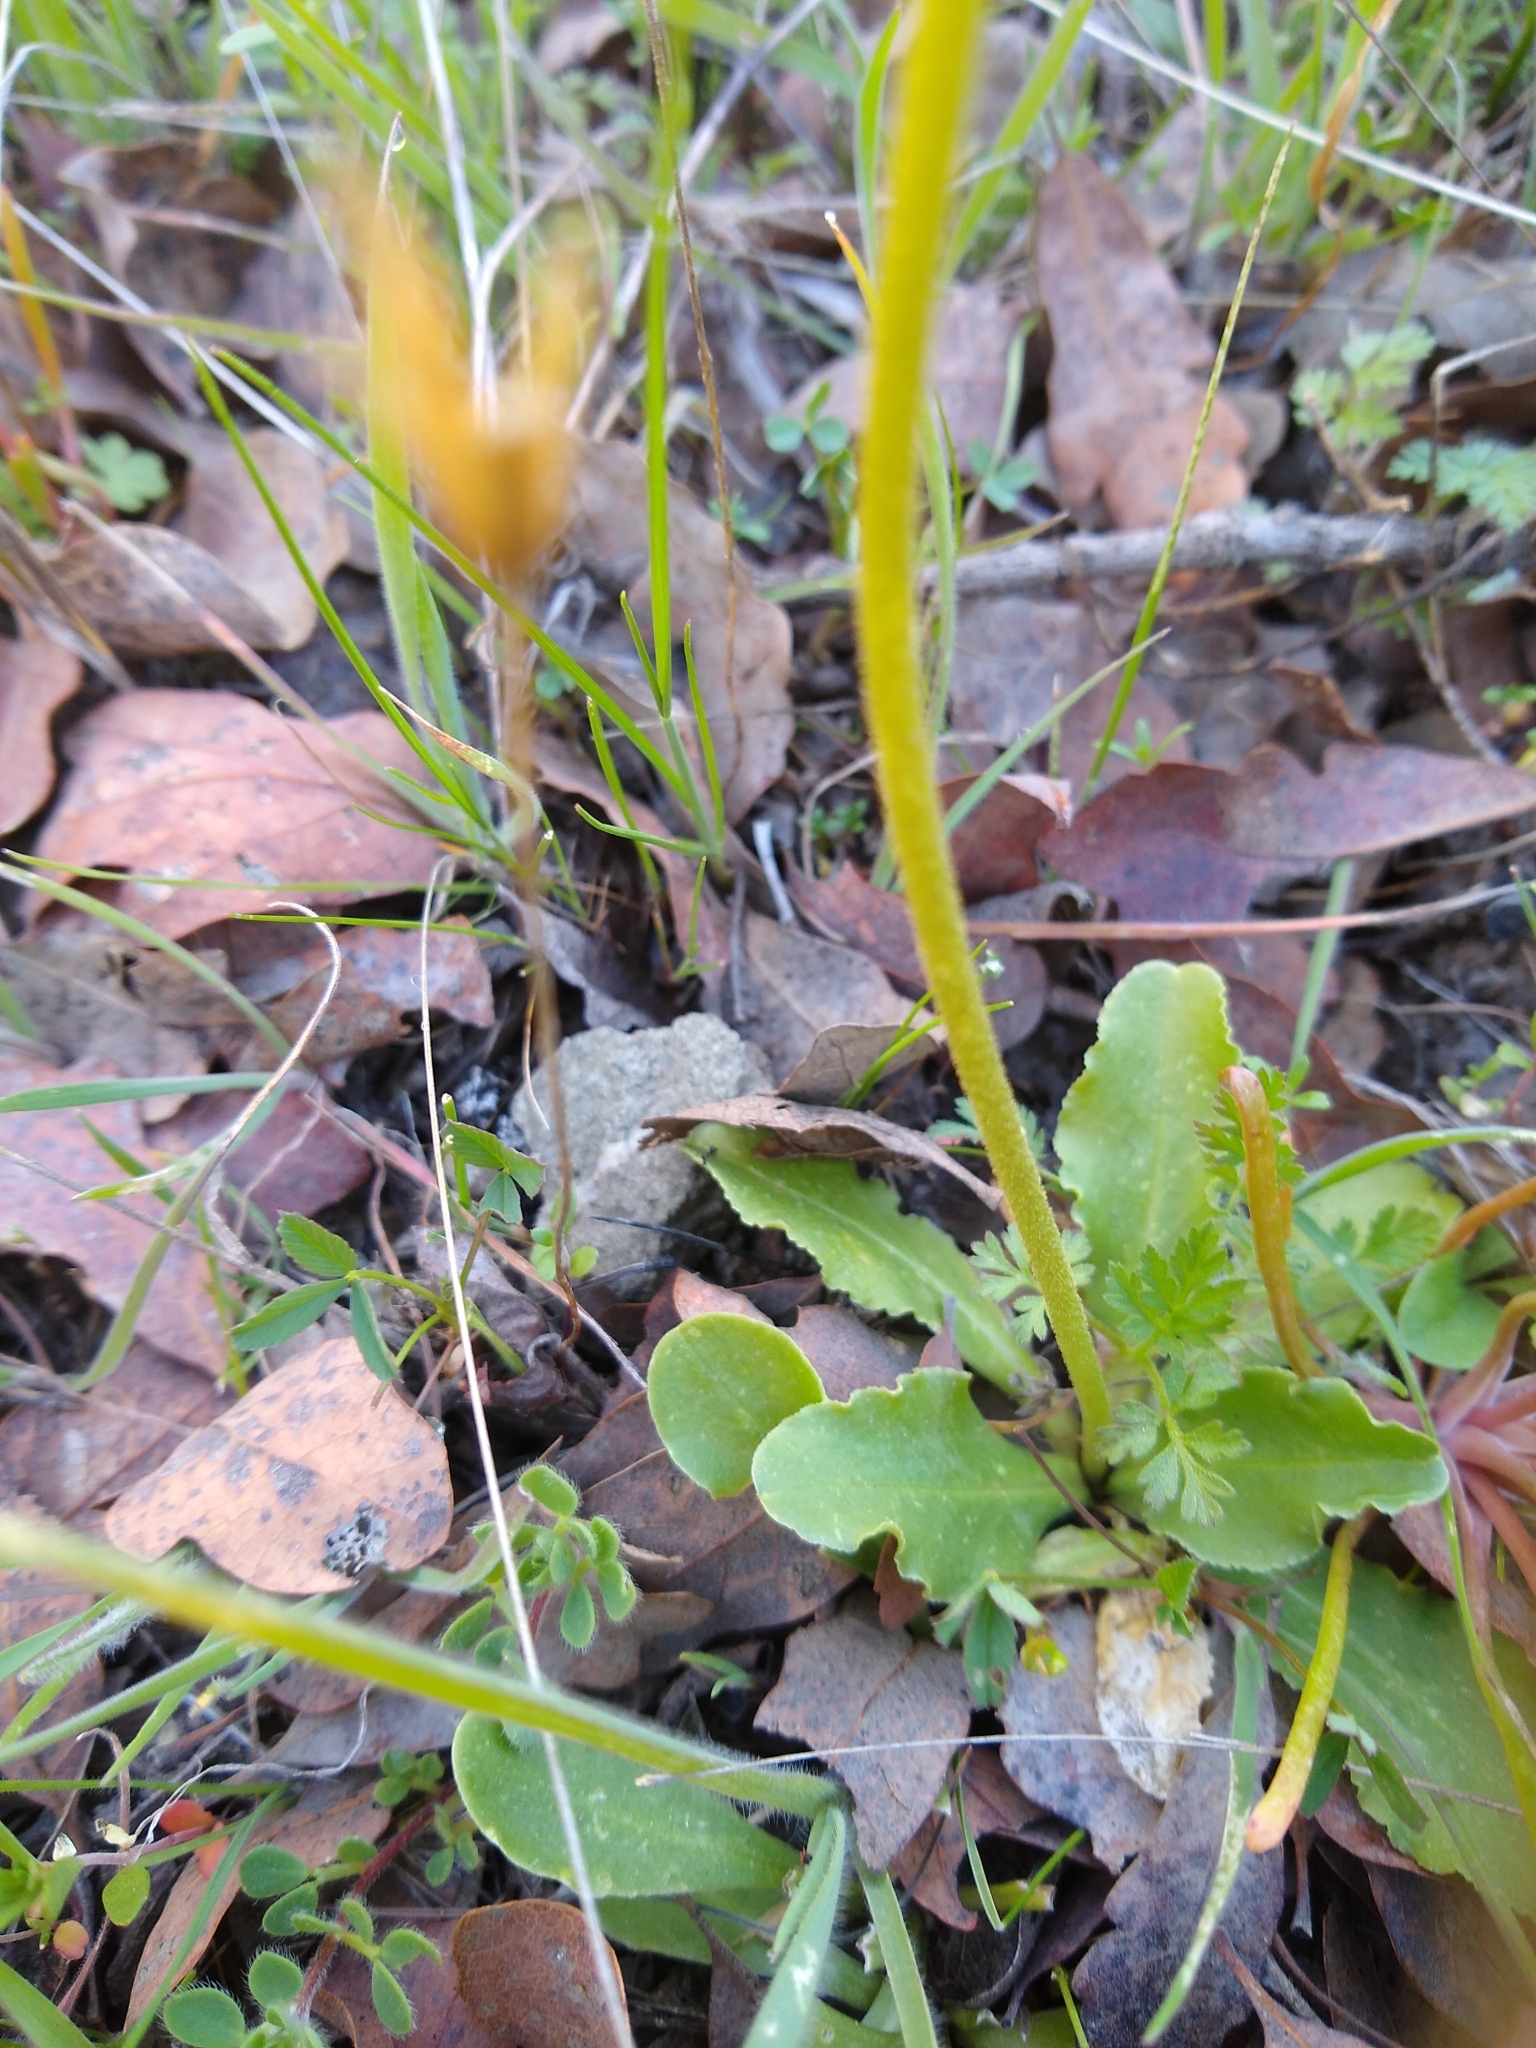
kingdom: Plantae
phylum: Tracheophyta
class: Magnoliopsida
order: Ericales
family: Primulaceae
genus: Dodecatheon
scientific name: Dodecatheon clevelandii
